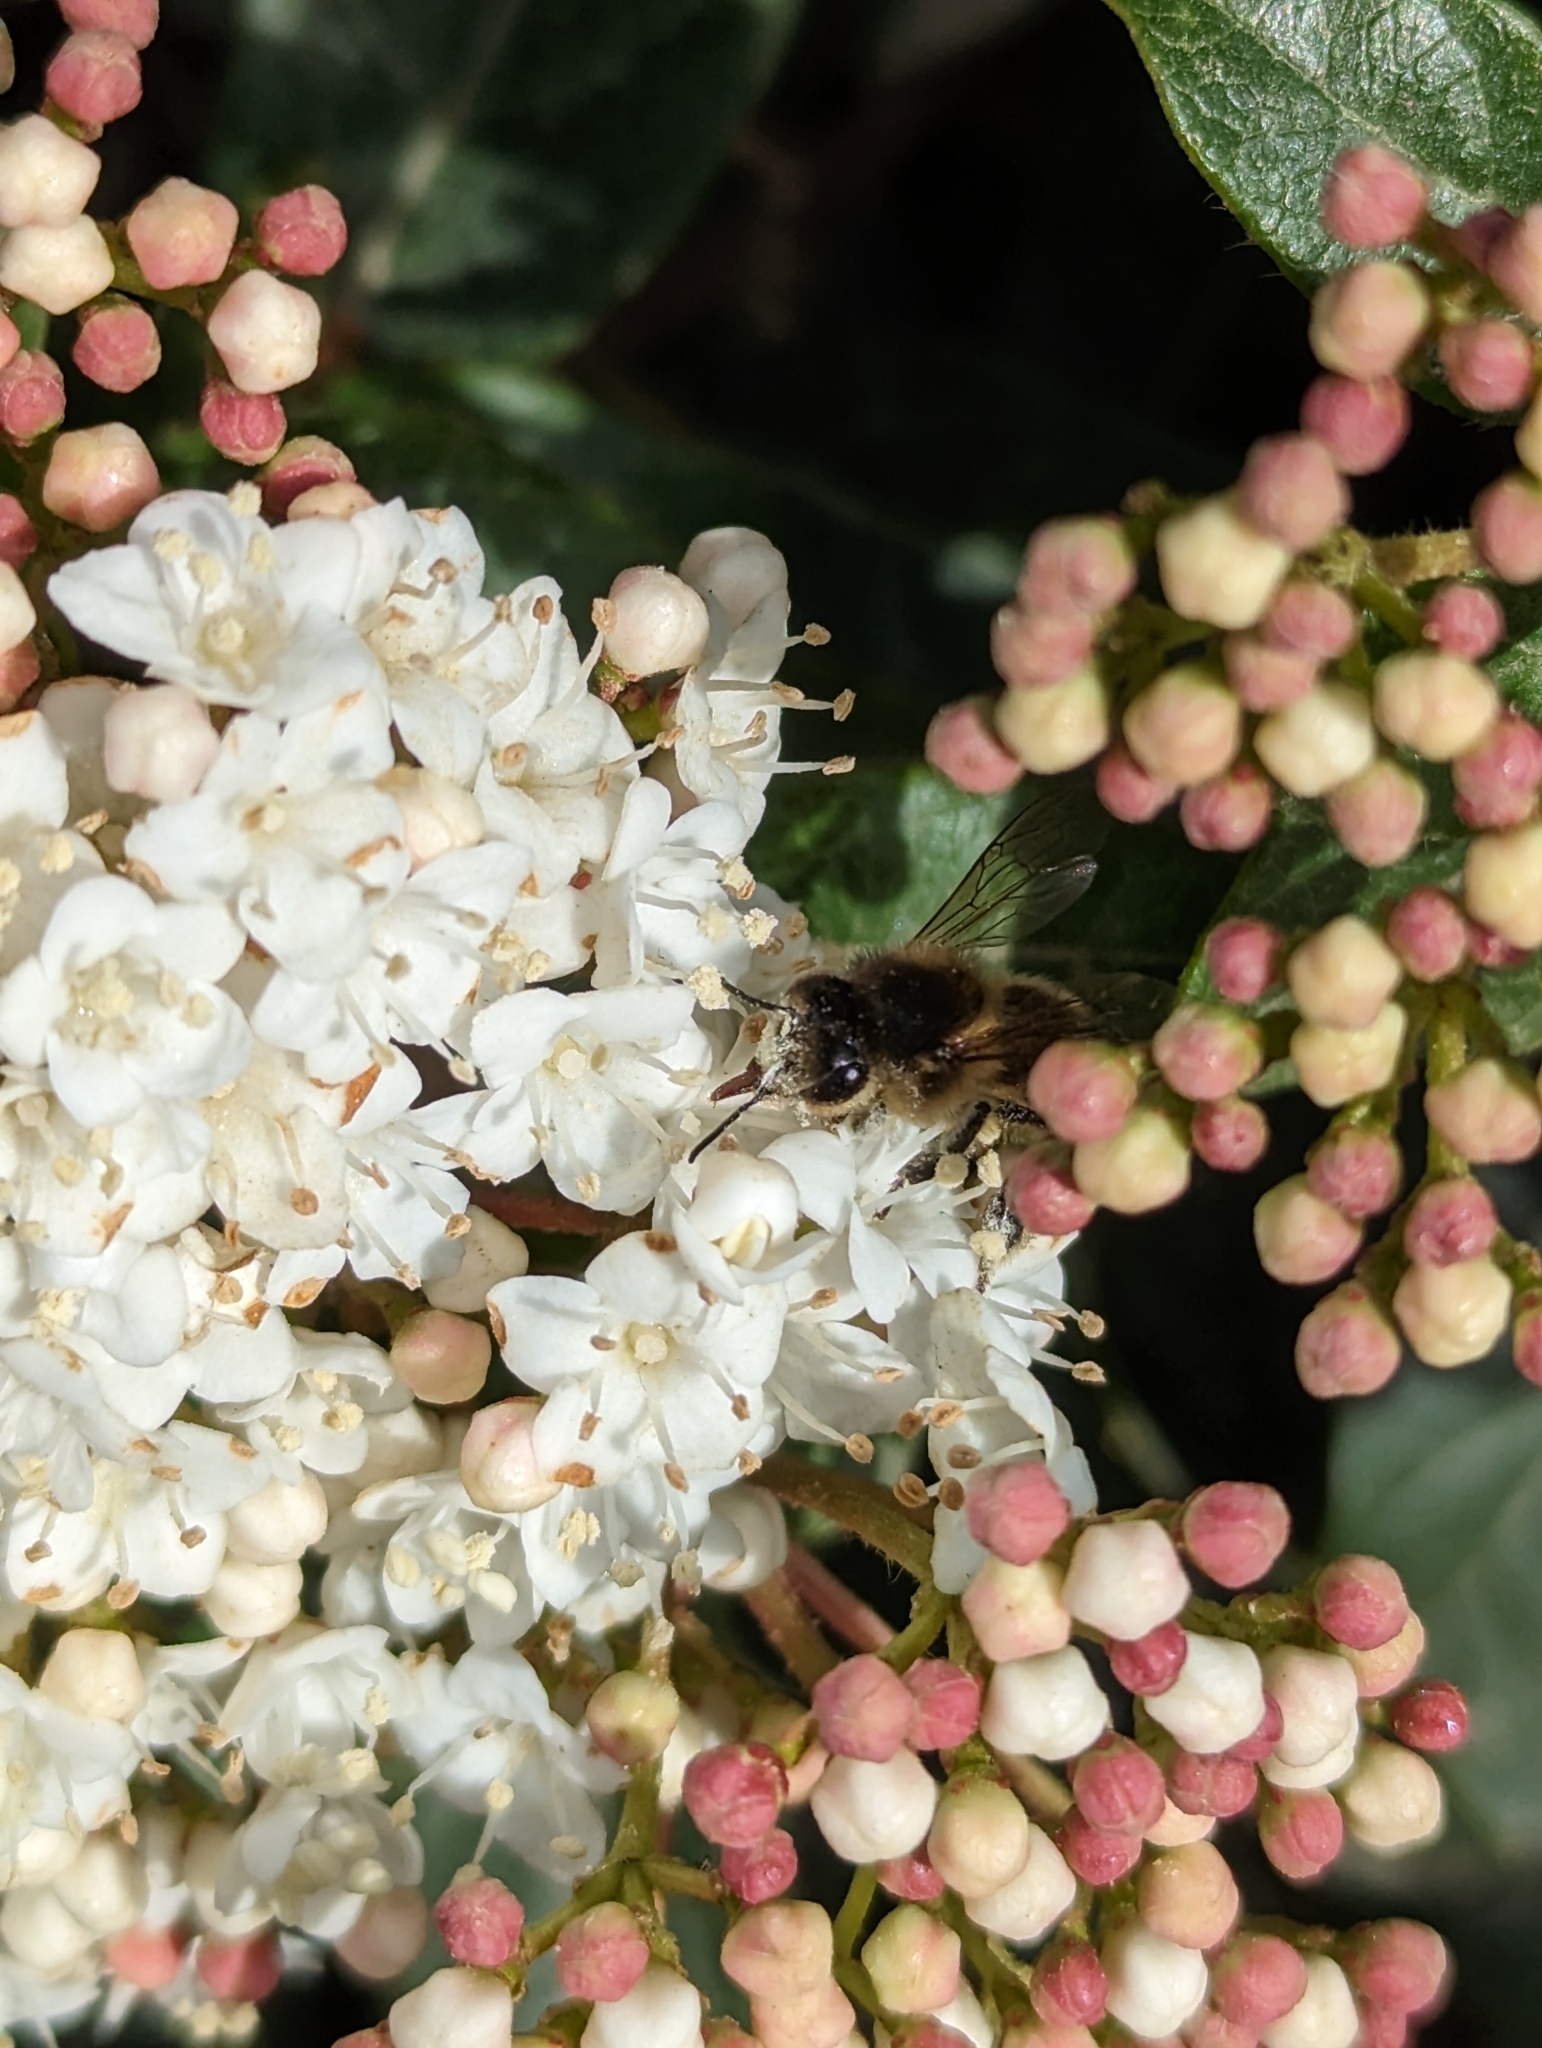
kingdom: Animalia
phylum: Arthropoda
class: Insecta
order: Hymenoptera
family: Apidae
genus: Apis
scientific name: Apis mellifera
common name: Honey bee
